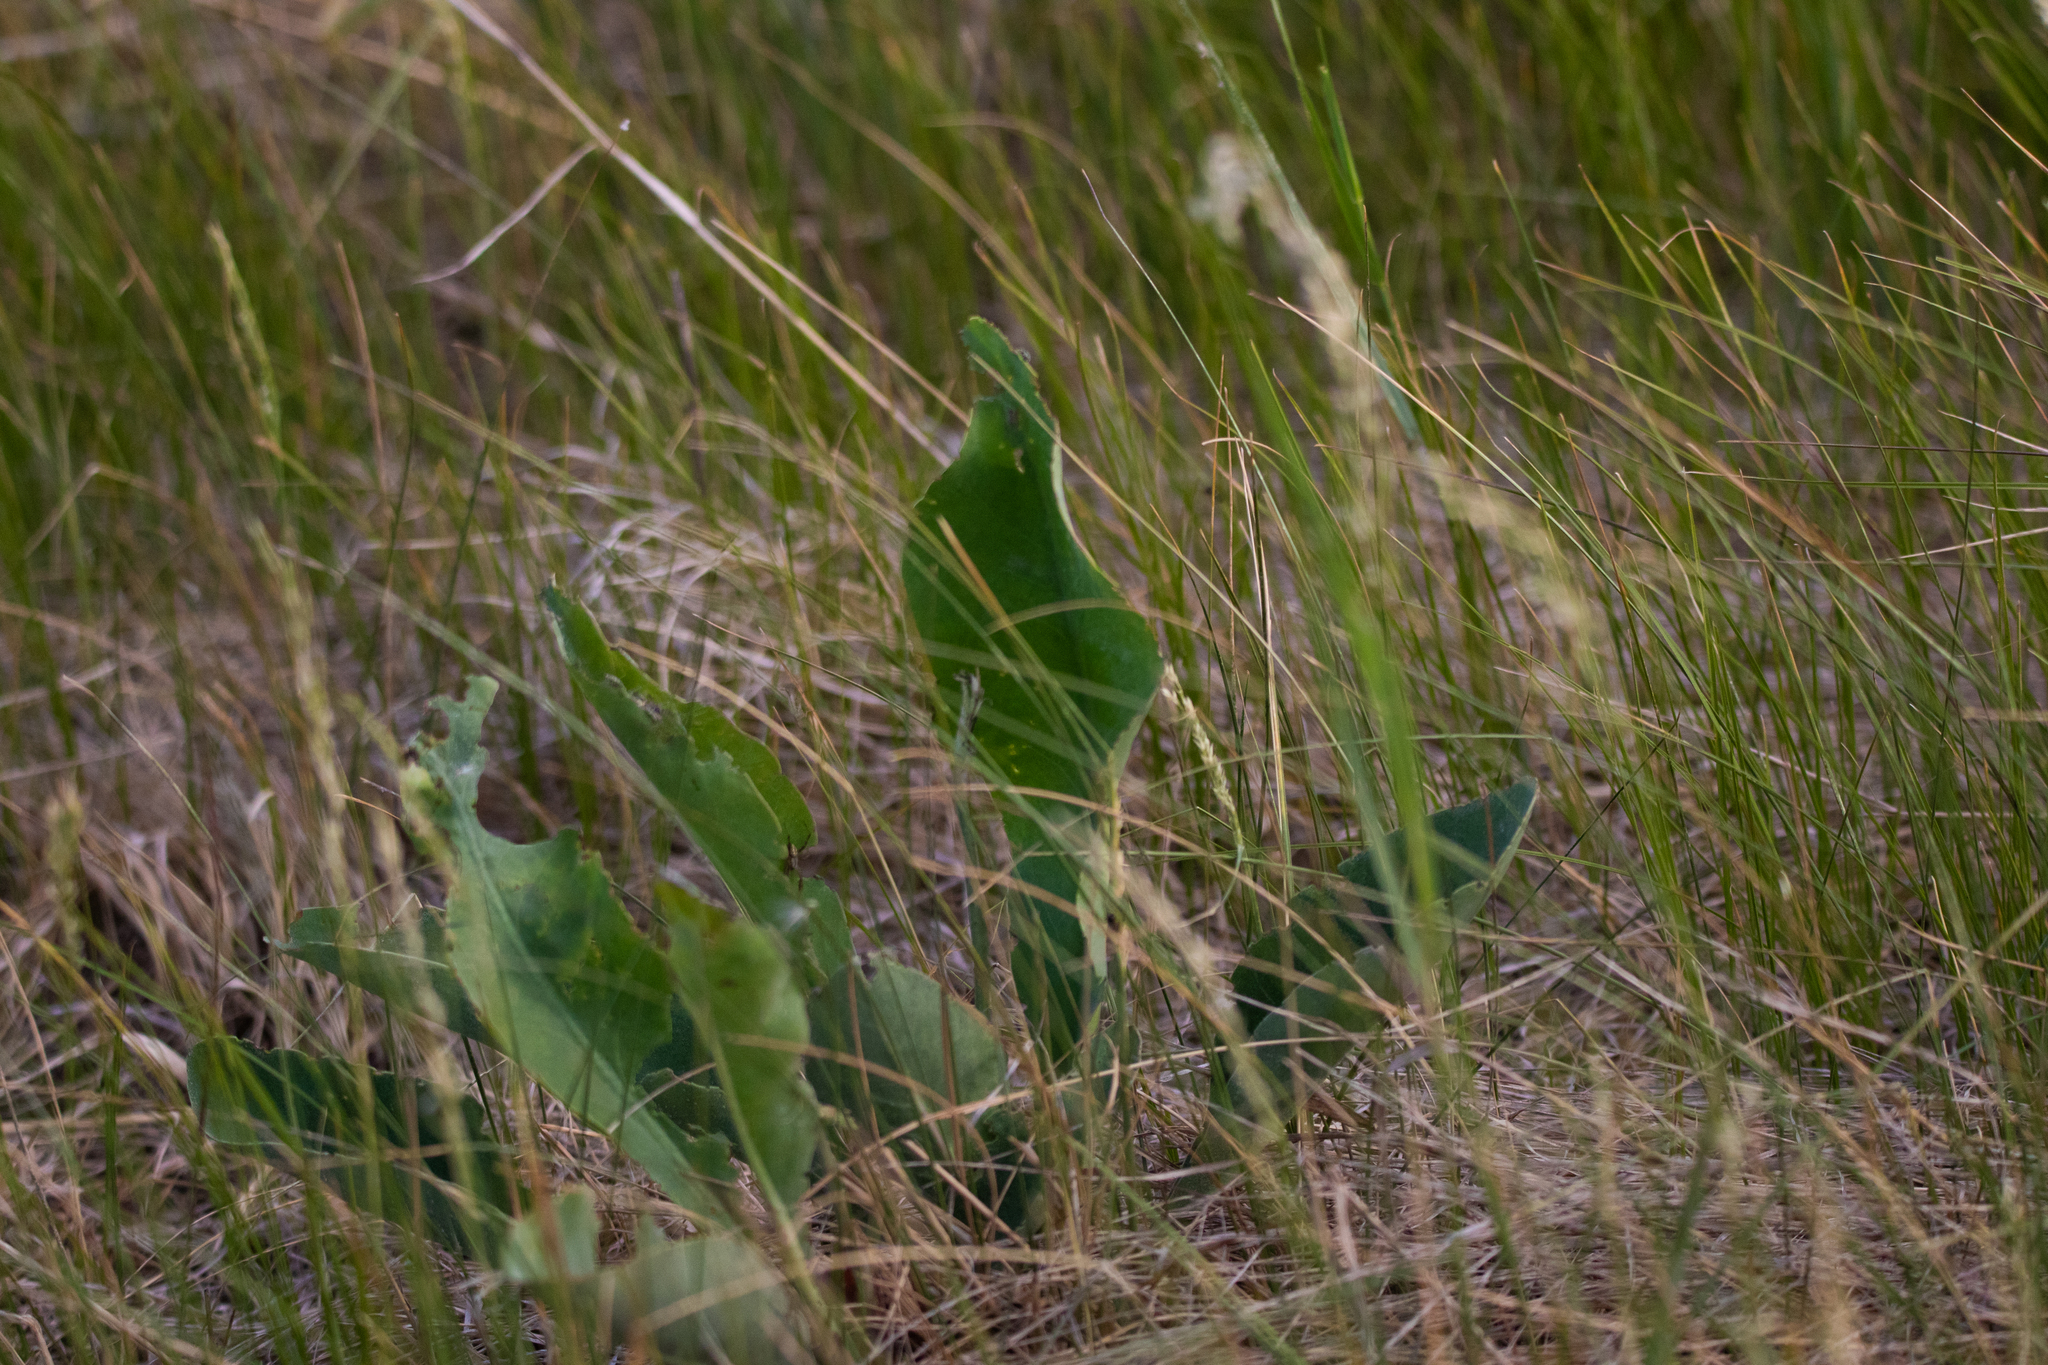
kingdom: Plantae
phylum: Tracheophyta
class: Magnoliopsida
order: Caryophyllales
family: Plumbaginaceae
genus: Limonium
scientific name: Limonium gmelini
